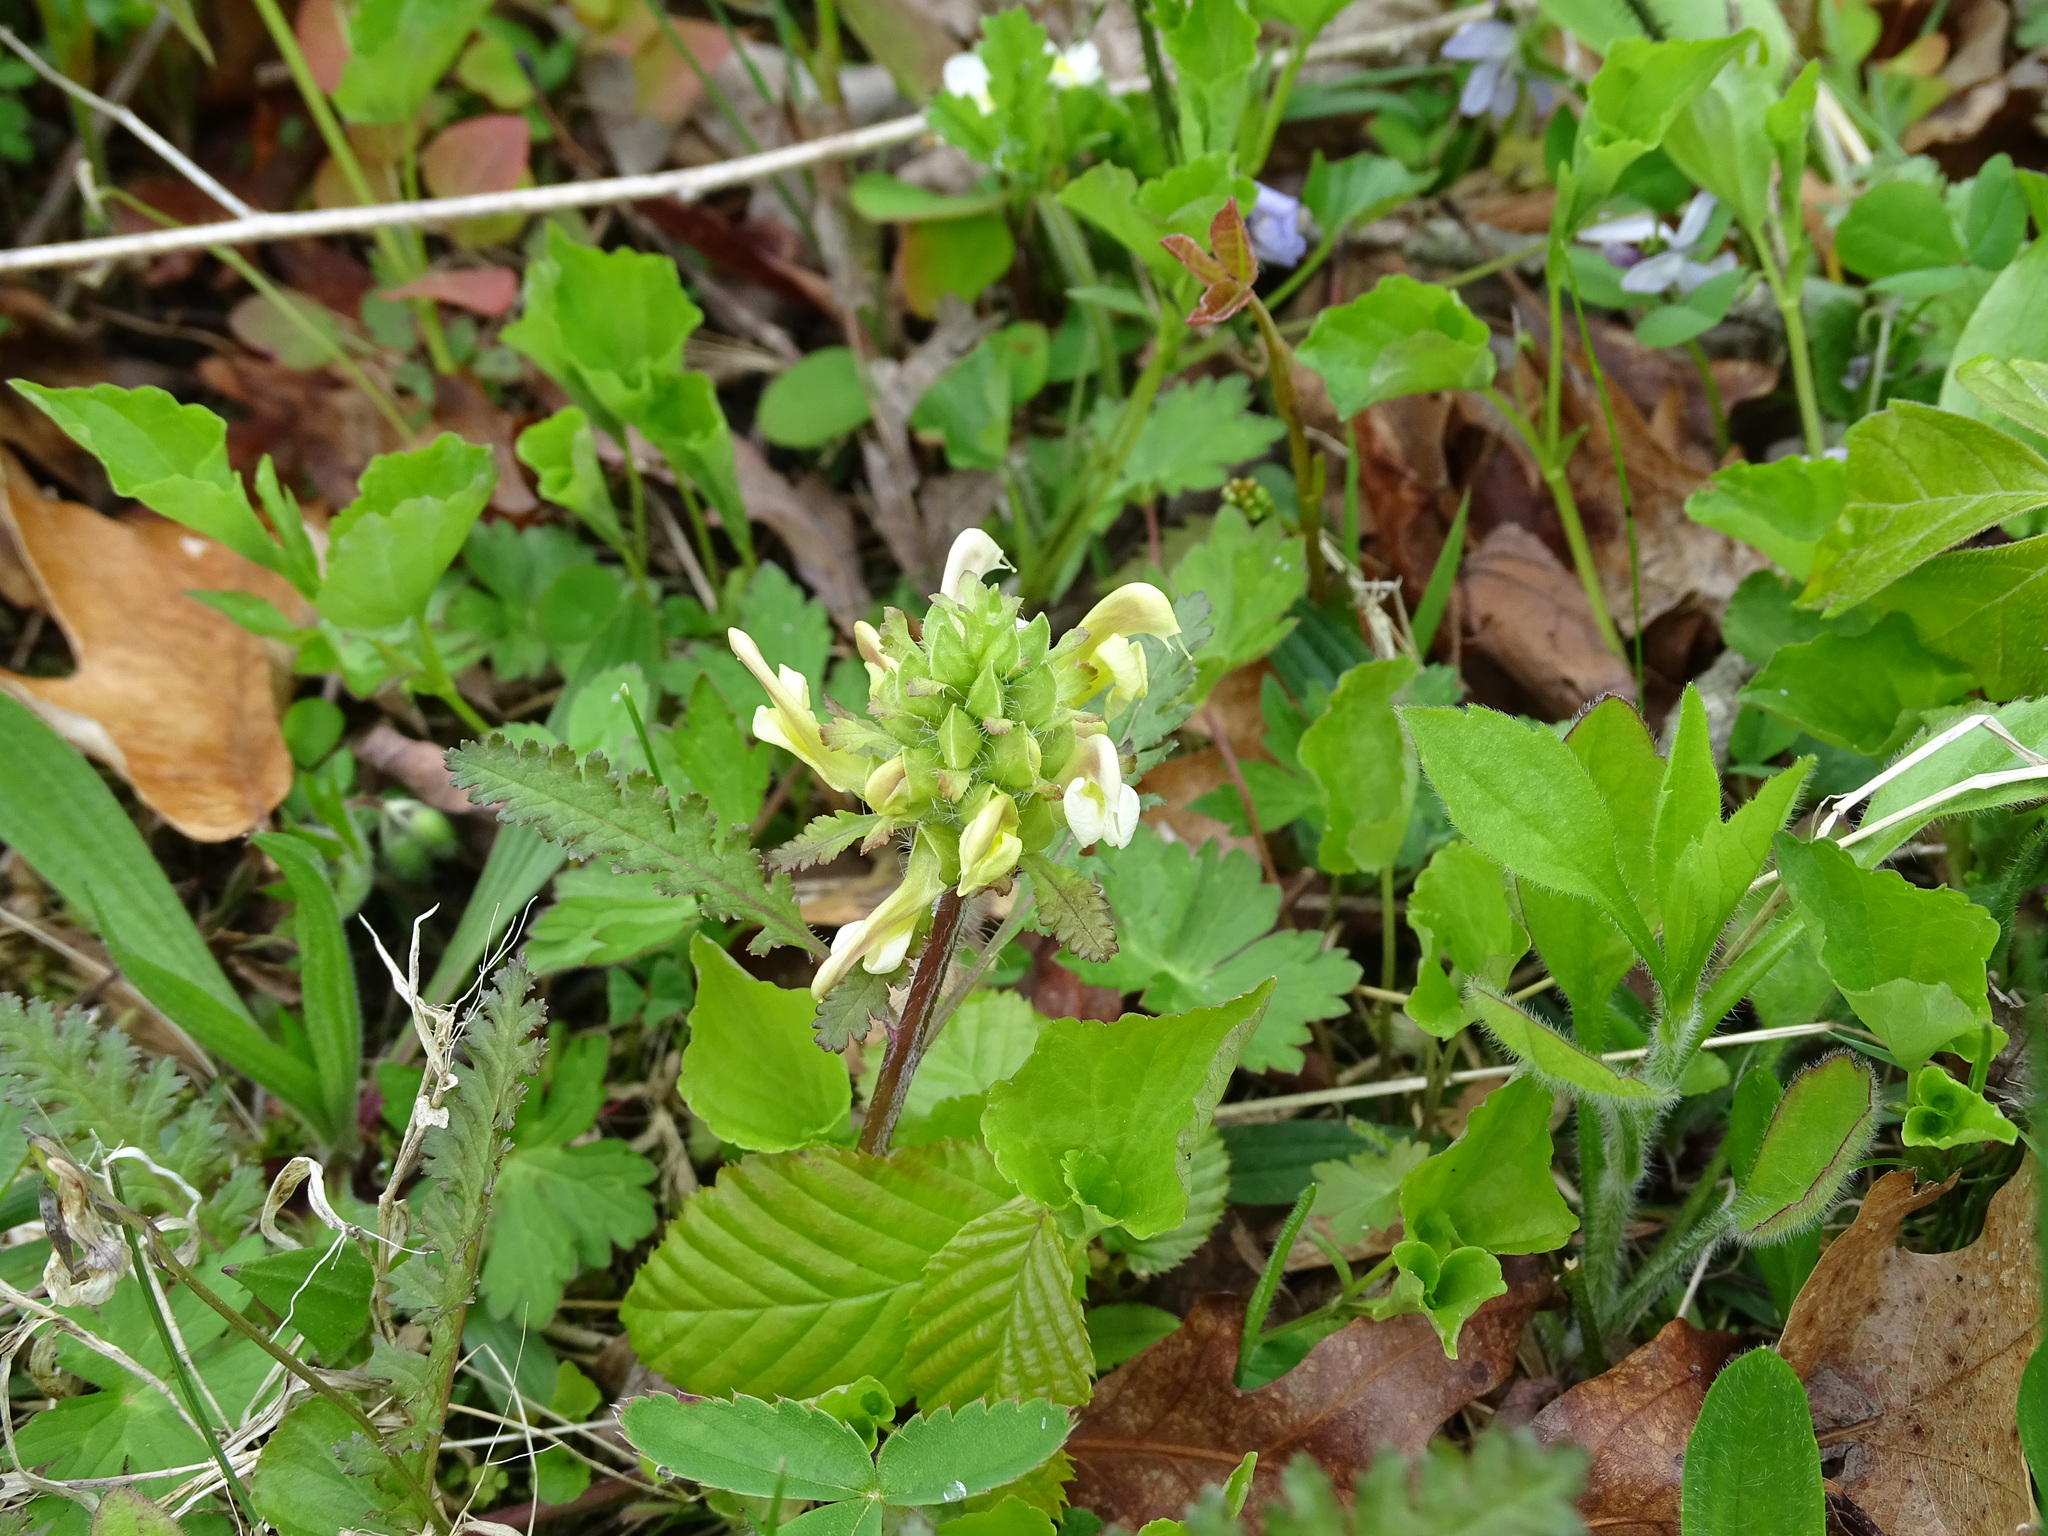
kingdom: Plantae
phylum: Tracheophyta
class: Magnoliopsida
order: Lamiales
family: Orobanchaceae
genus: Pedicularis
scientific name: Pedicularis canadensis
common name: Early lousewort
